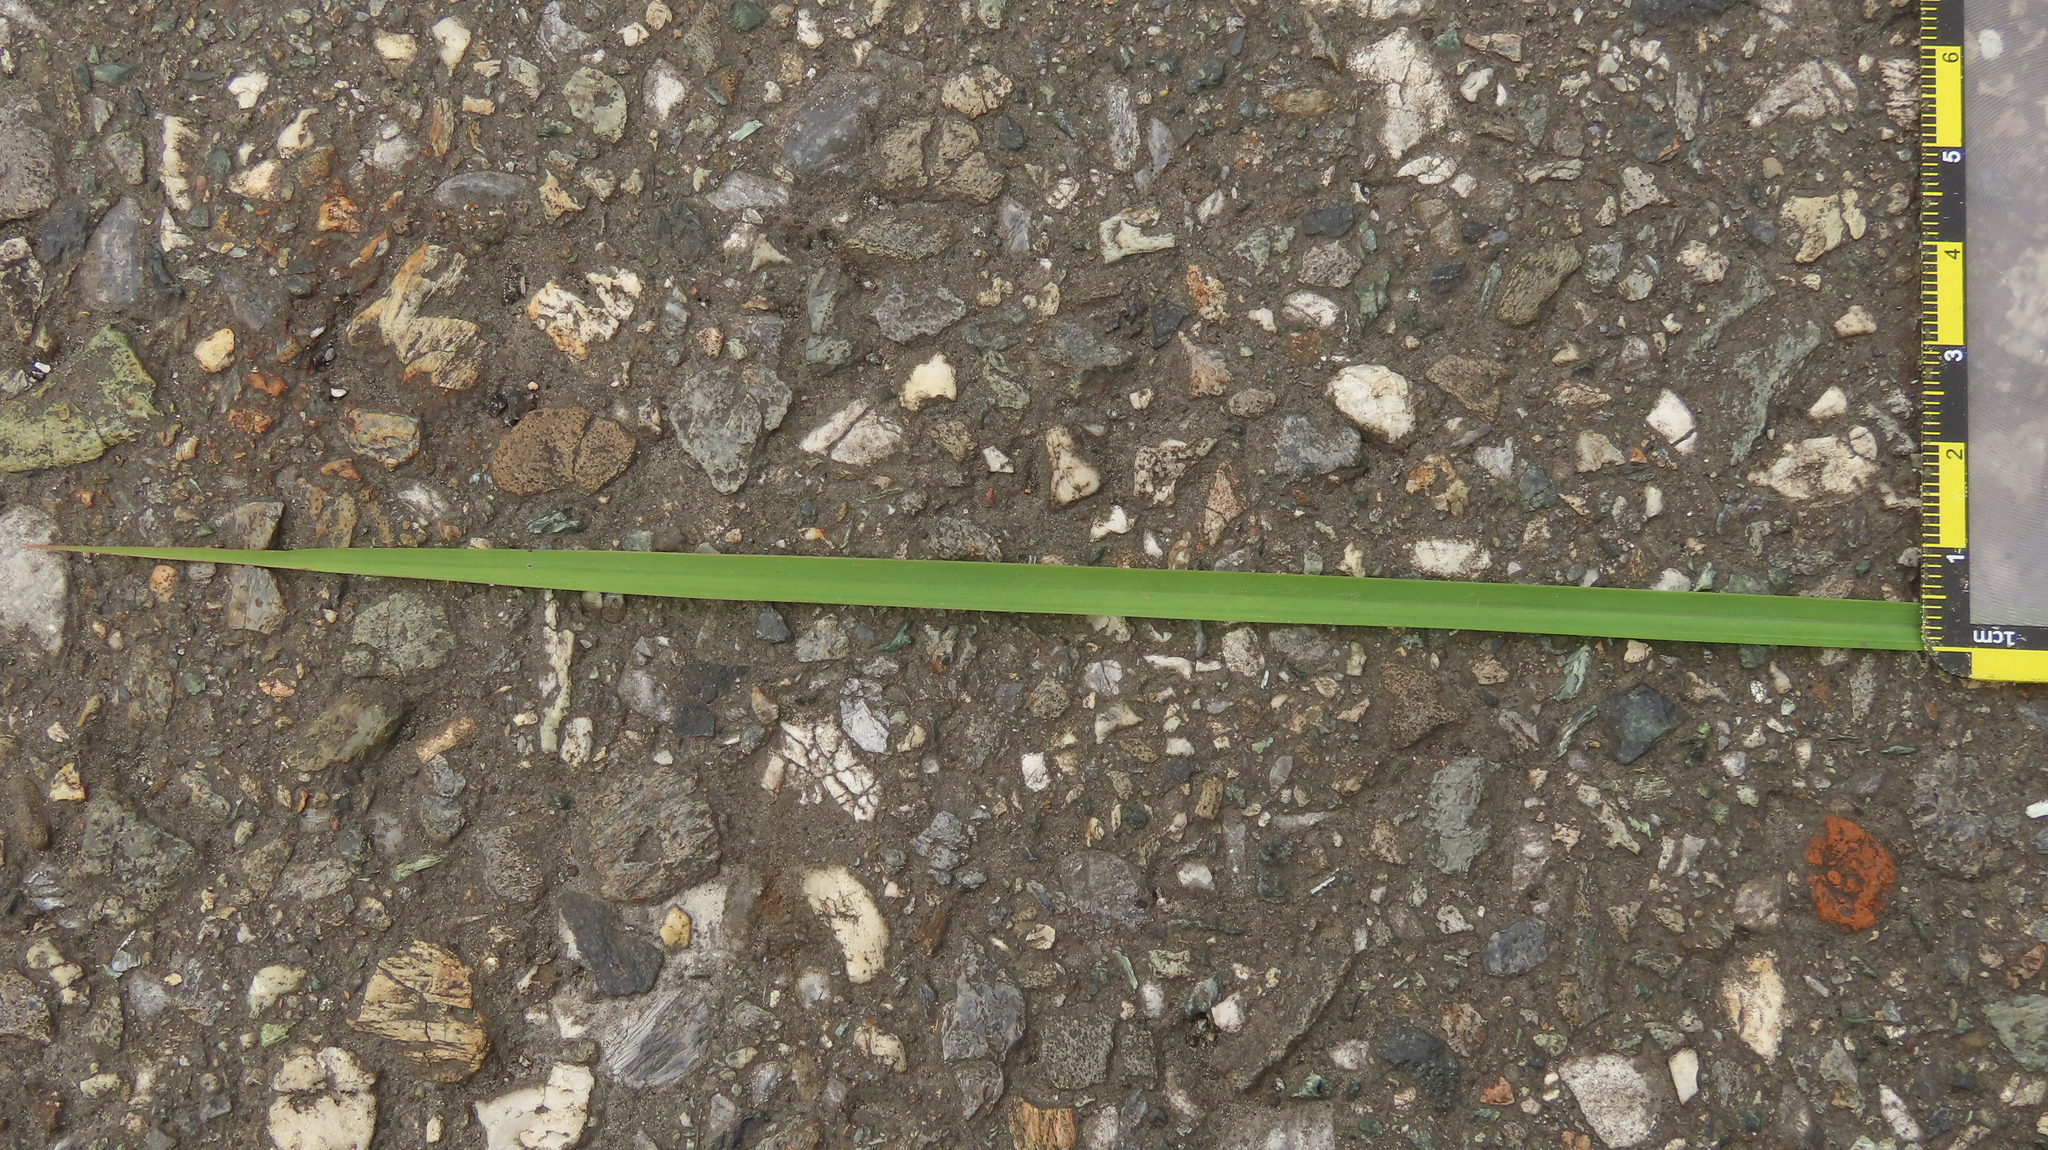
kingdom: Plantae
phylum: Tracheophyta
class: Liliopsida
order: Poales
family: Poaceae
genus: Cymbopogon
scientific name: Cymbopogon tortilis
